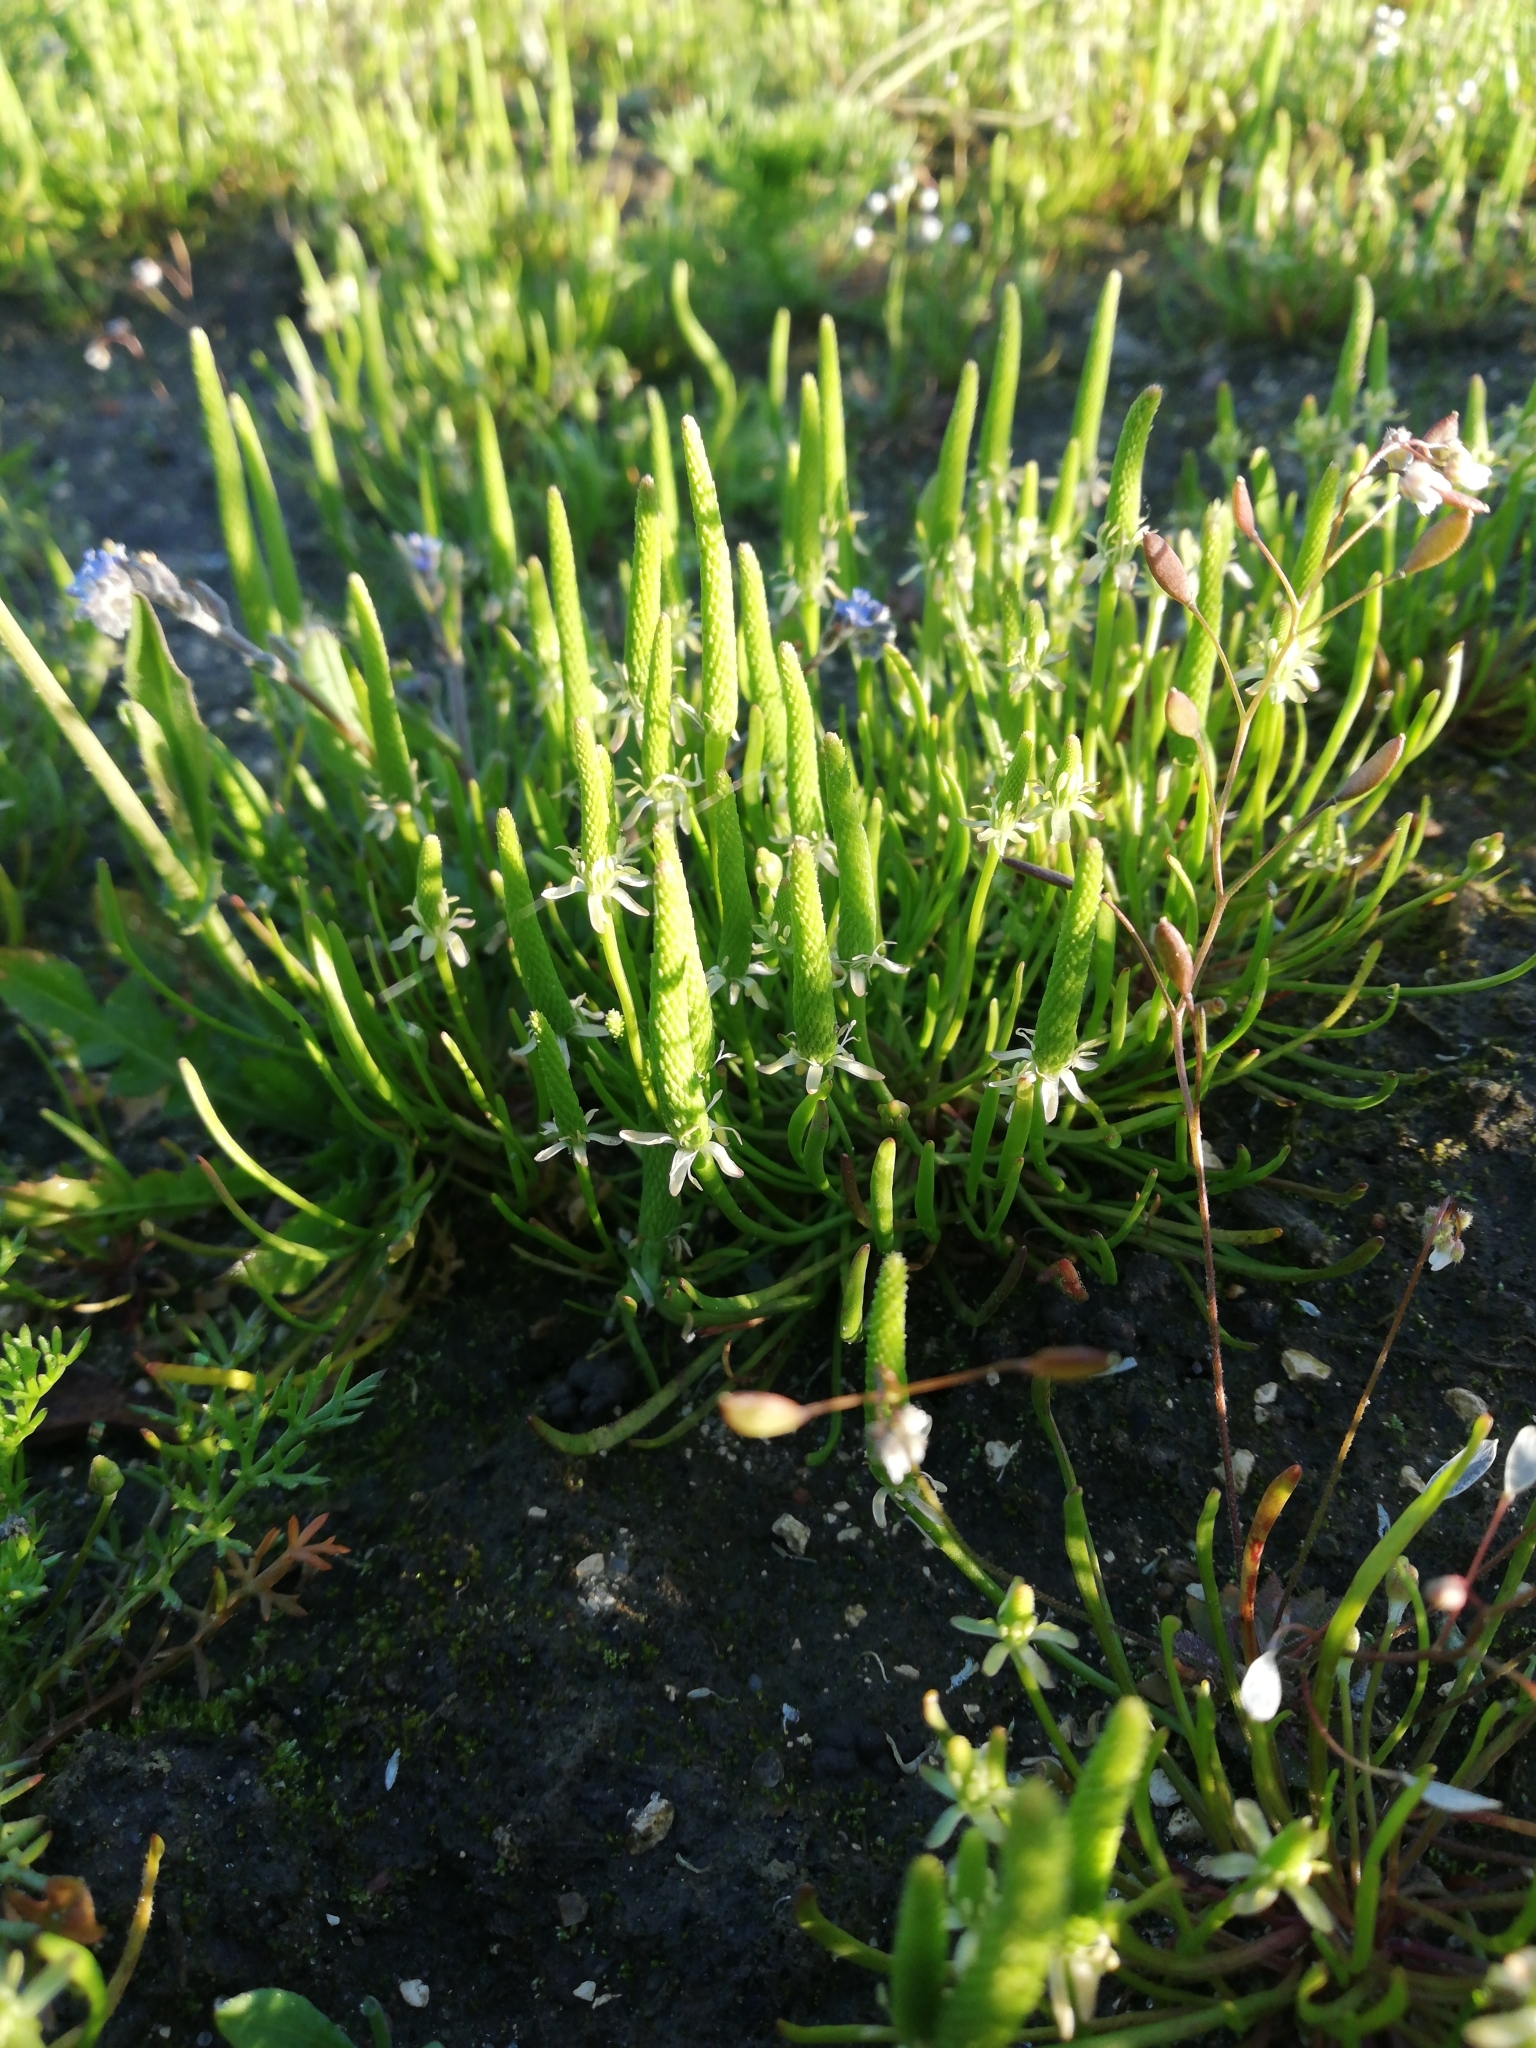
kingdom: Plantae
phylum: Tracheophyta
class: Magnoliopsida
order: Ranunculales
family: Ranunculaceae
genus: Myosurus
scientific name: Myosurus minimus
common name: Mousetail
